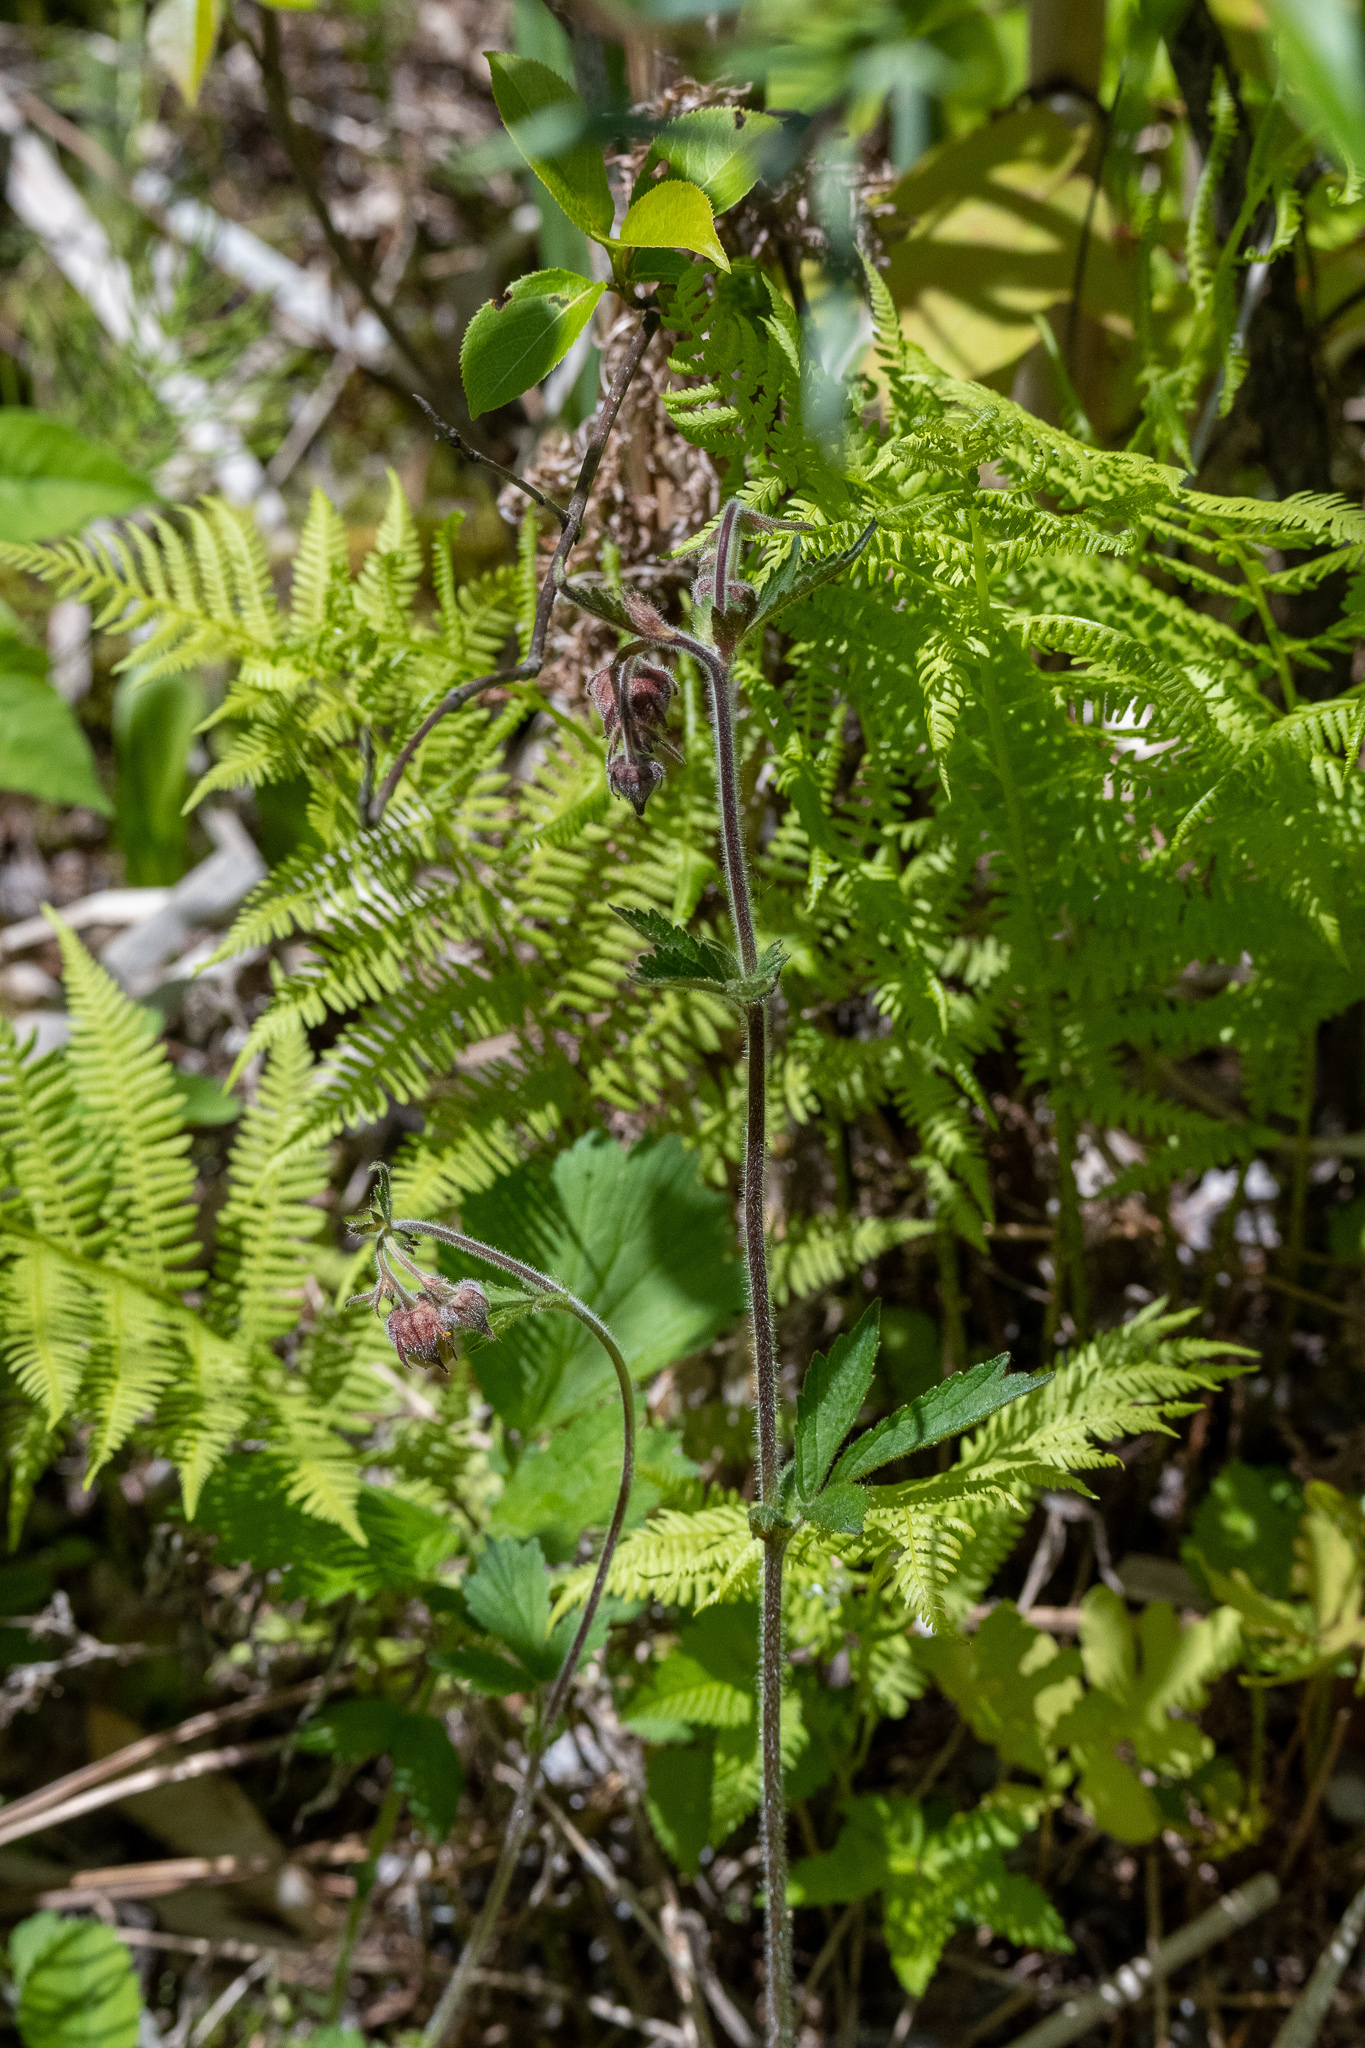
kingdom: Plantae
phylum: Tracheophyta
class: Magnoliopsida
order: Rosales
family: Rosaceae
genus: Geum
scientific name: Geum rivale
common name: Water avens
